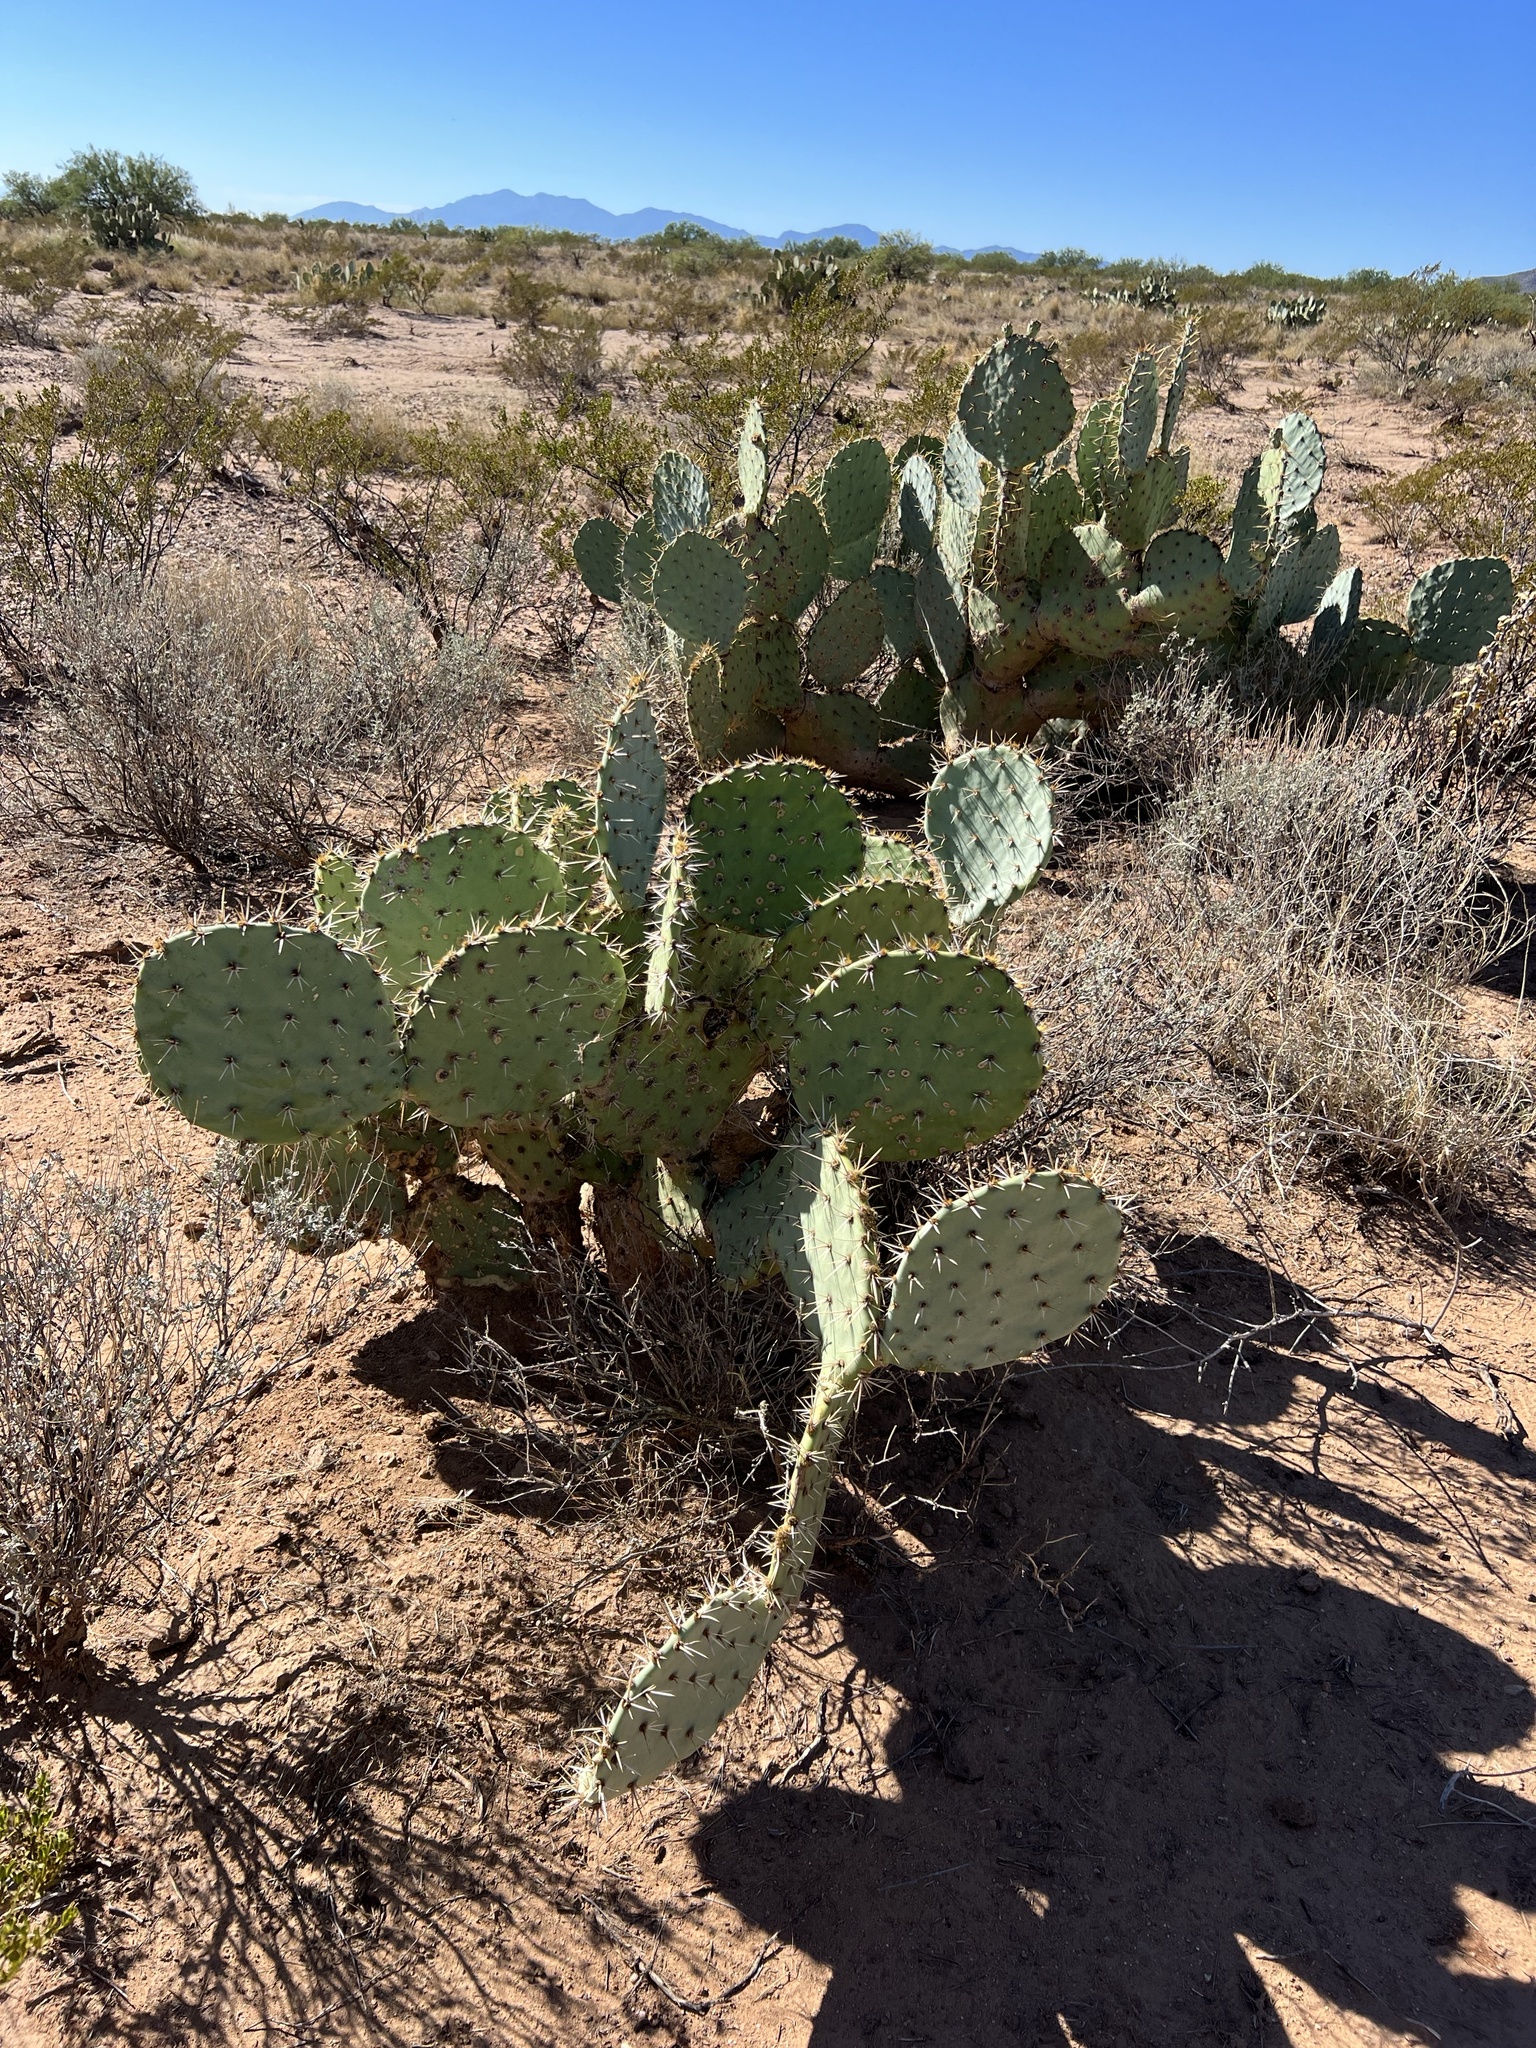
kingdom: Plantae
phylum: Tracheophyta
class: Magnoliopsida
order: Caryophyllales
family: Cactaceae
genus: Opuntia
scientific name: Opuntia engelmannii
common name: Cactus-apple
